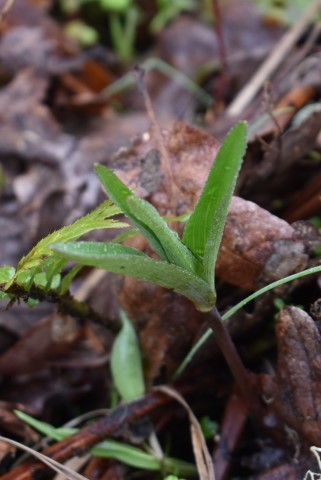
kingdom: Plantae
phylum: Tracheophyta
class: Liliopsida
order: Liliales
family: Liliaceae
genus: Fritillaria
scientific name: Fritillaria affinis
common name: Ojai fritillary
